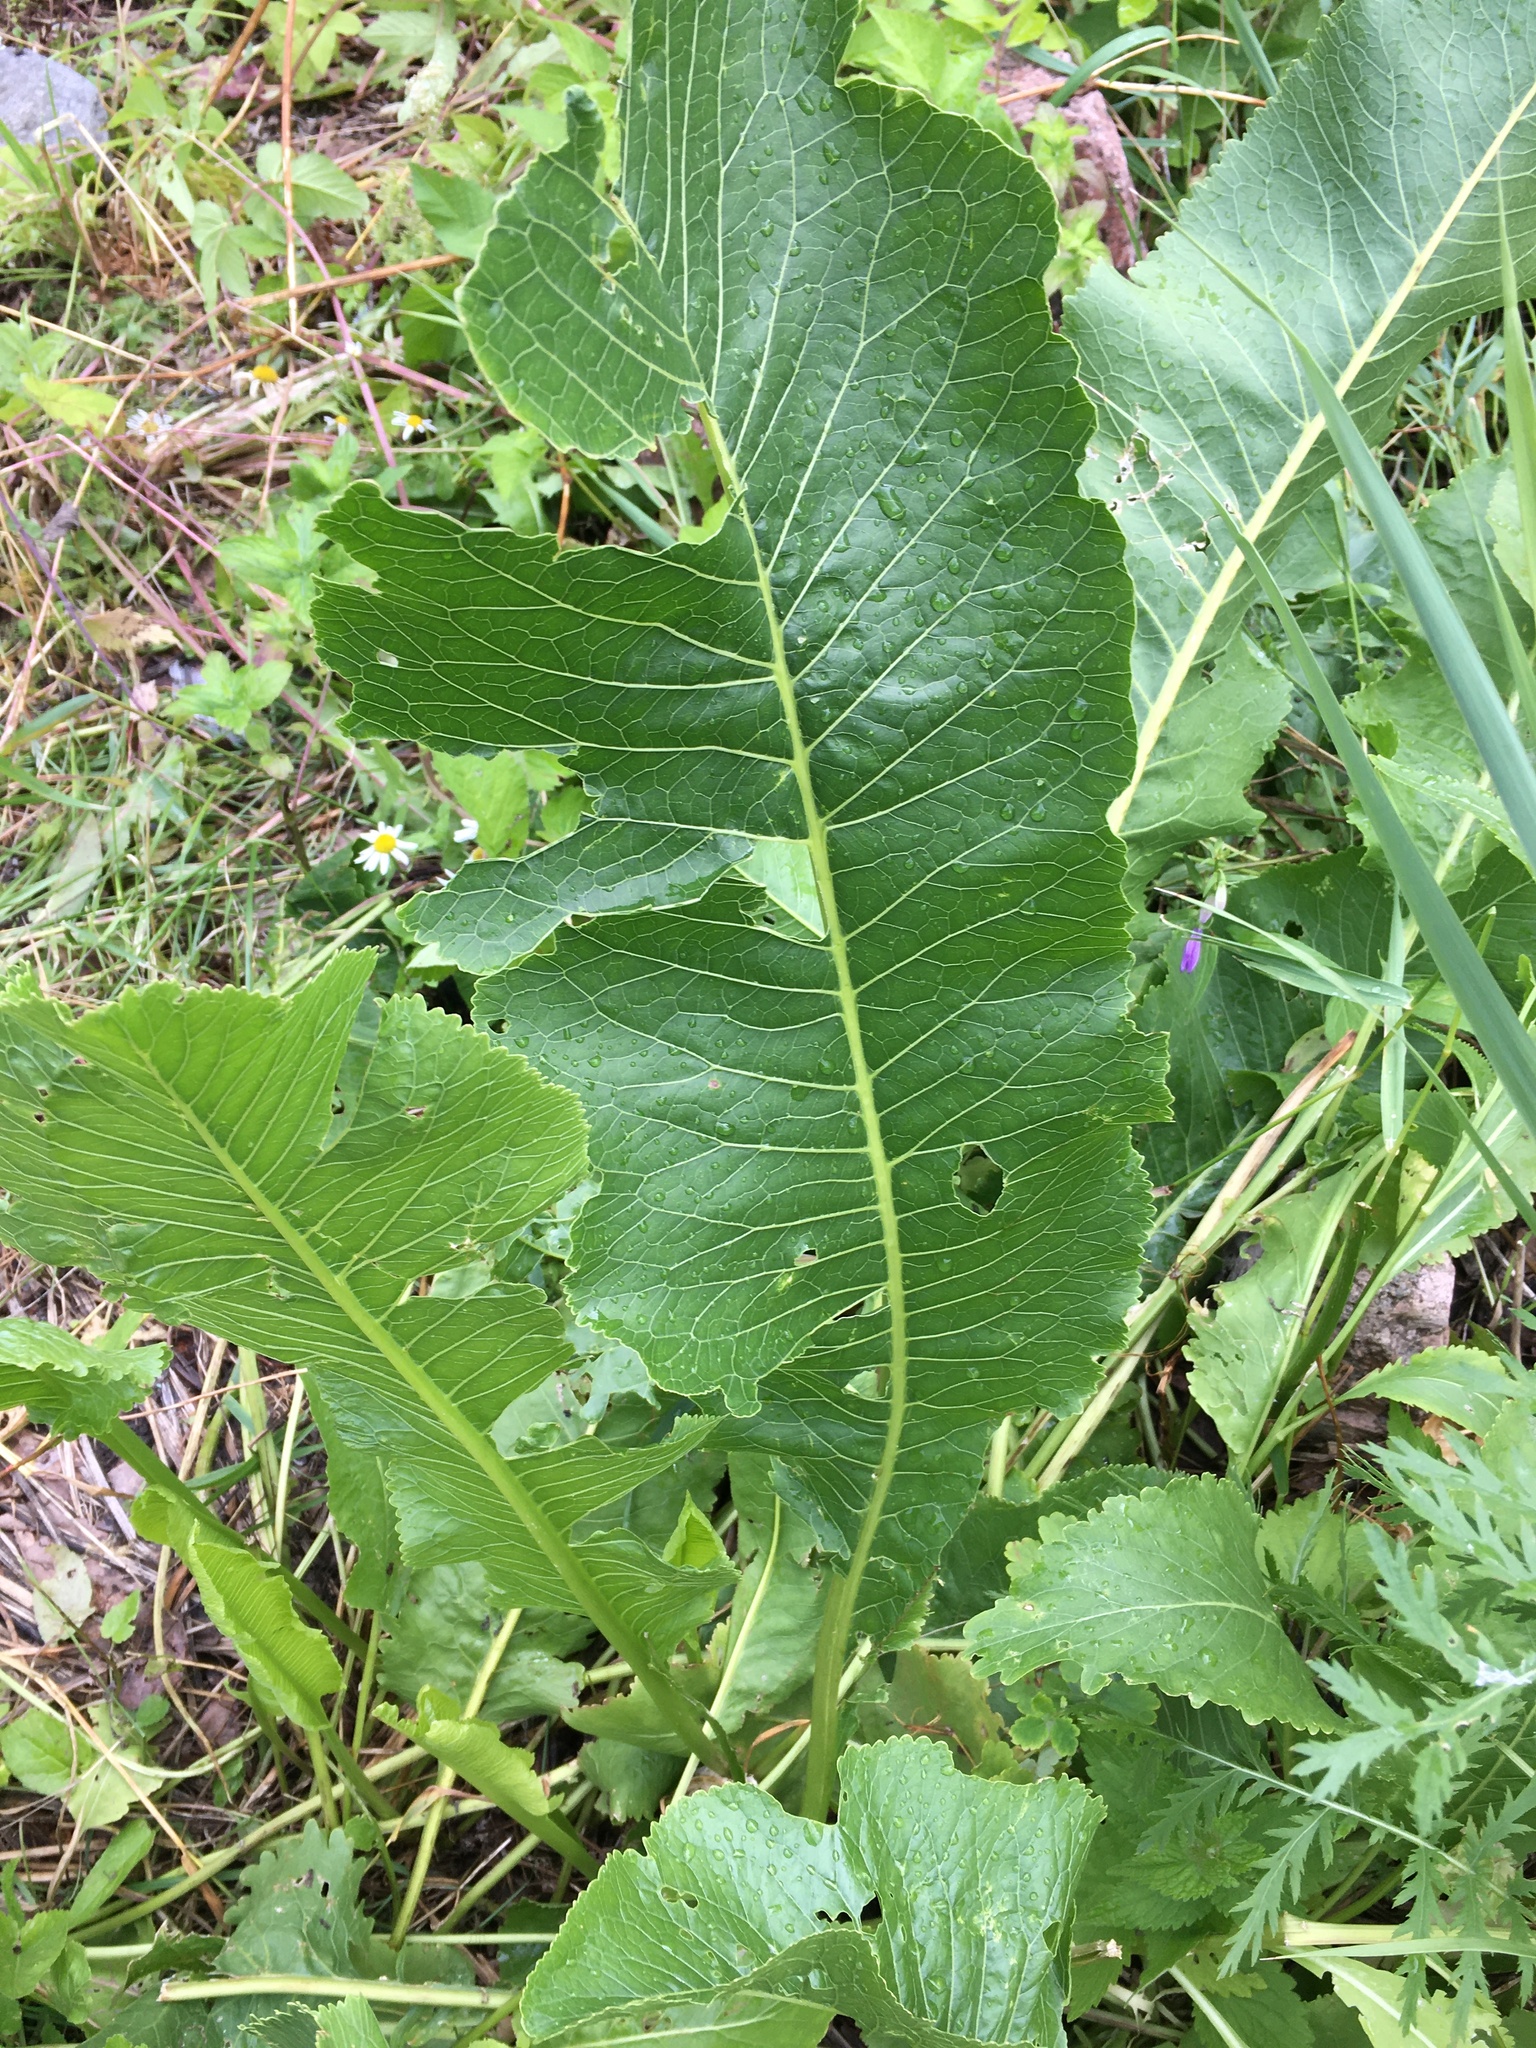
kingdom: Plantae
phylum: Tracheophyta
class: Magnoliopsida
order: Brassicales
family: Brassicaceae
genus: Armoracia
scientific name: Armoracia rusticana
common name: Horseradish
